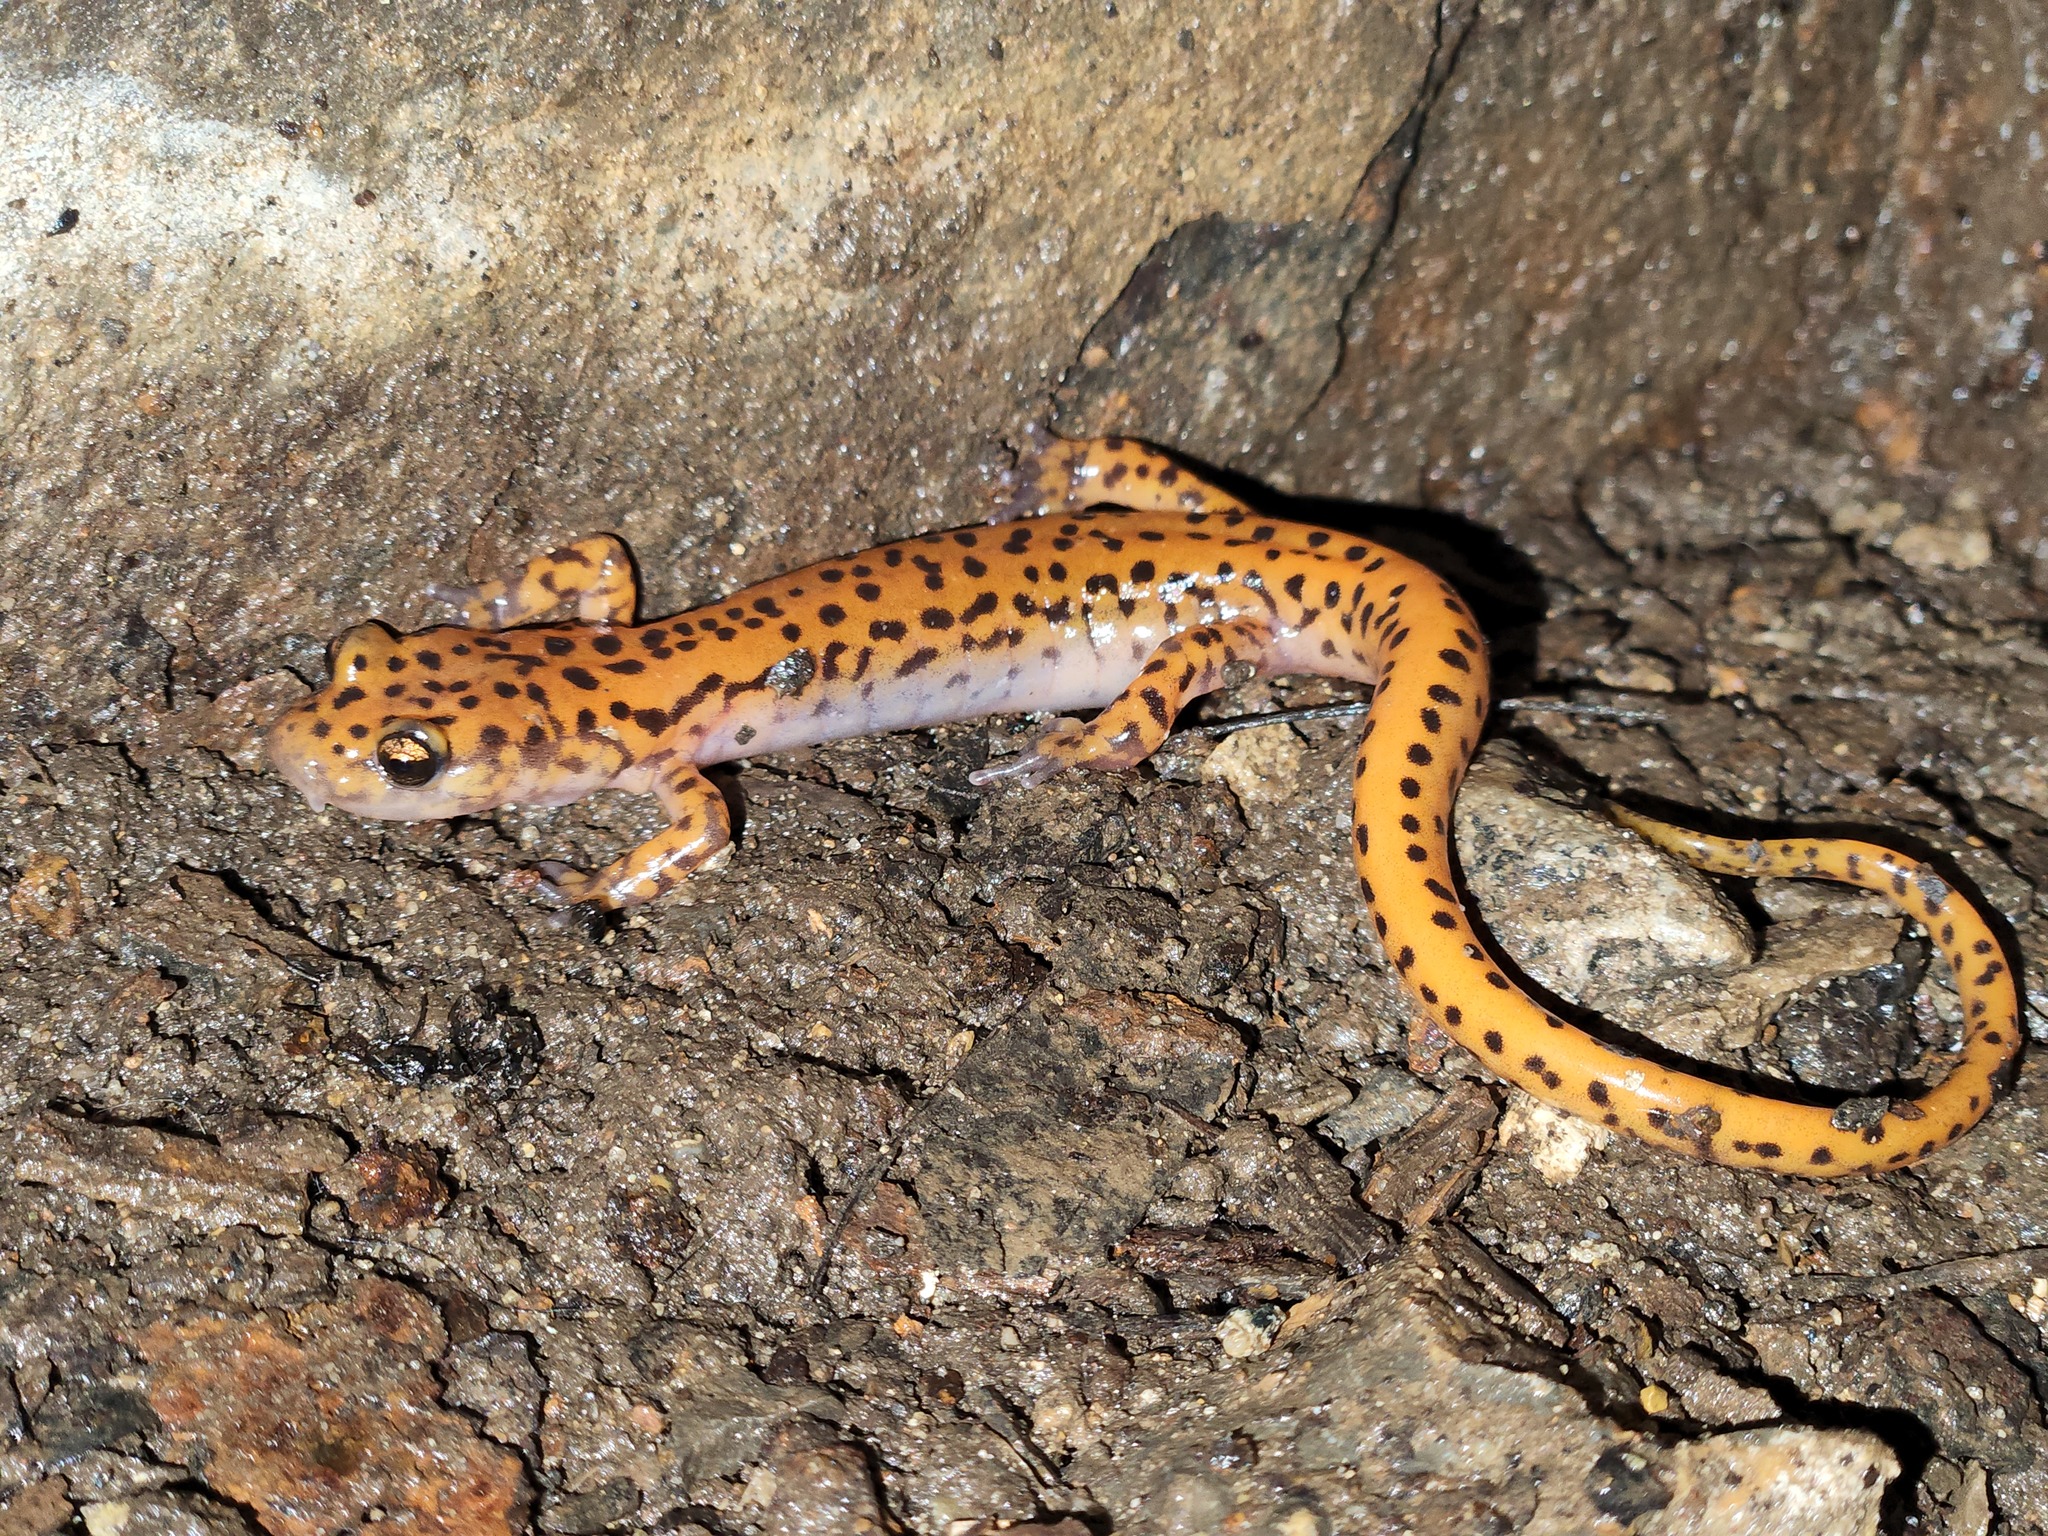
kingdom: Animalia
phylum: Chordata
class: Amphibia
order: Caudata
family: Plethodontidae
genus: Eurycea
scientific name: Eurycea lucifuga
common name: Cave salamander
